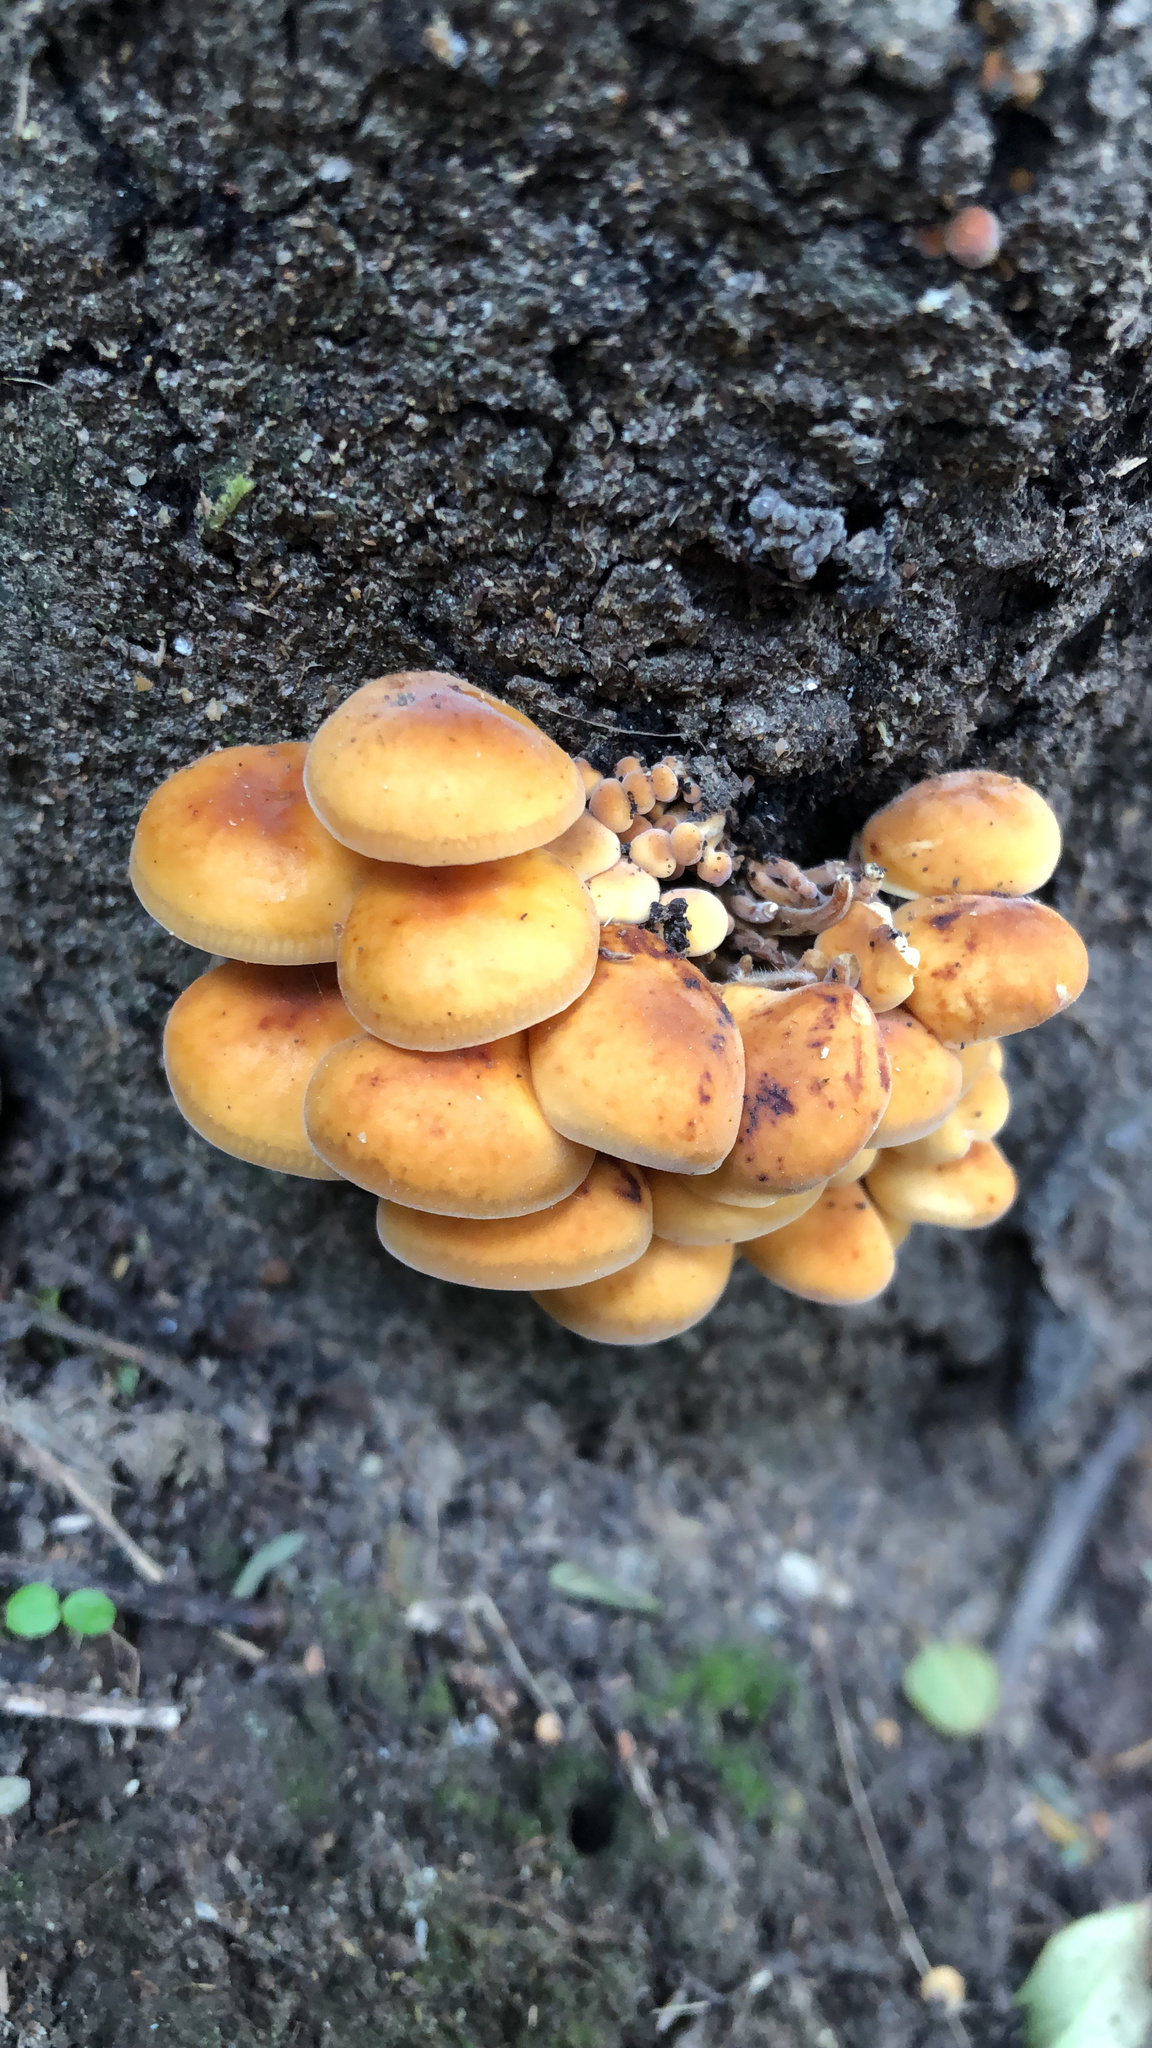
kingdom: Fungi
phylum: Basidiomycota
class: Agaricomycetes
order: Agaricales
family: Physalacriaceae
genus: Flammulina
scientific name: Flammulina velutipes
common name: Velvet shank
